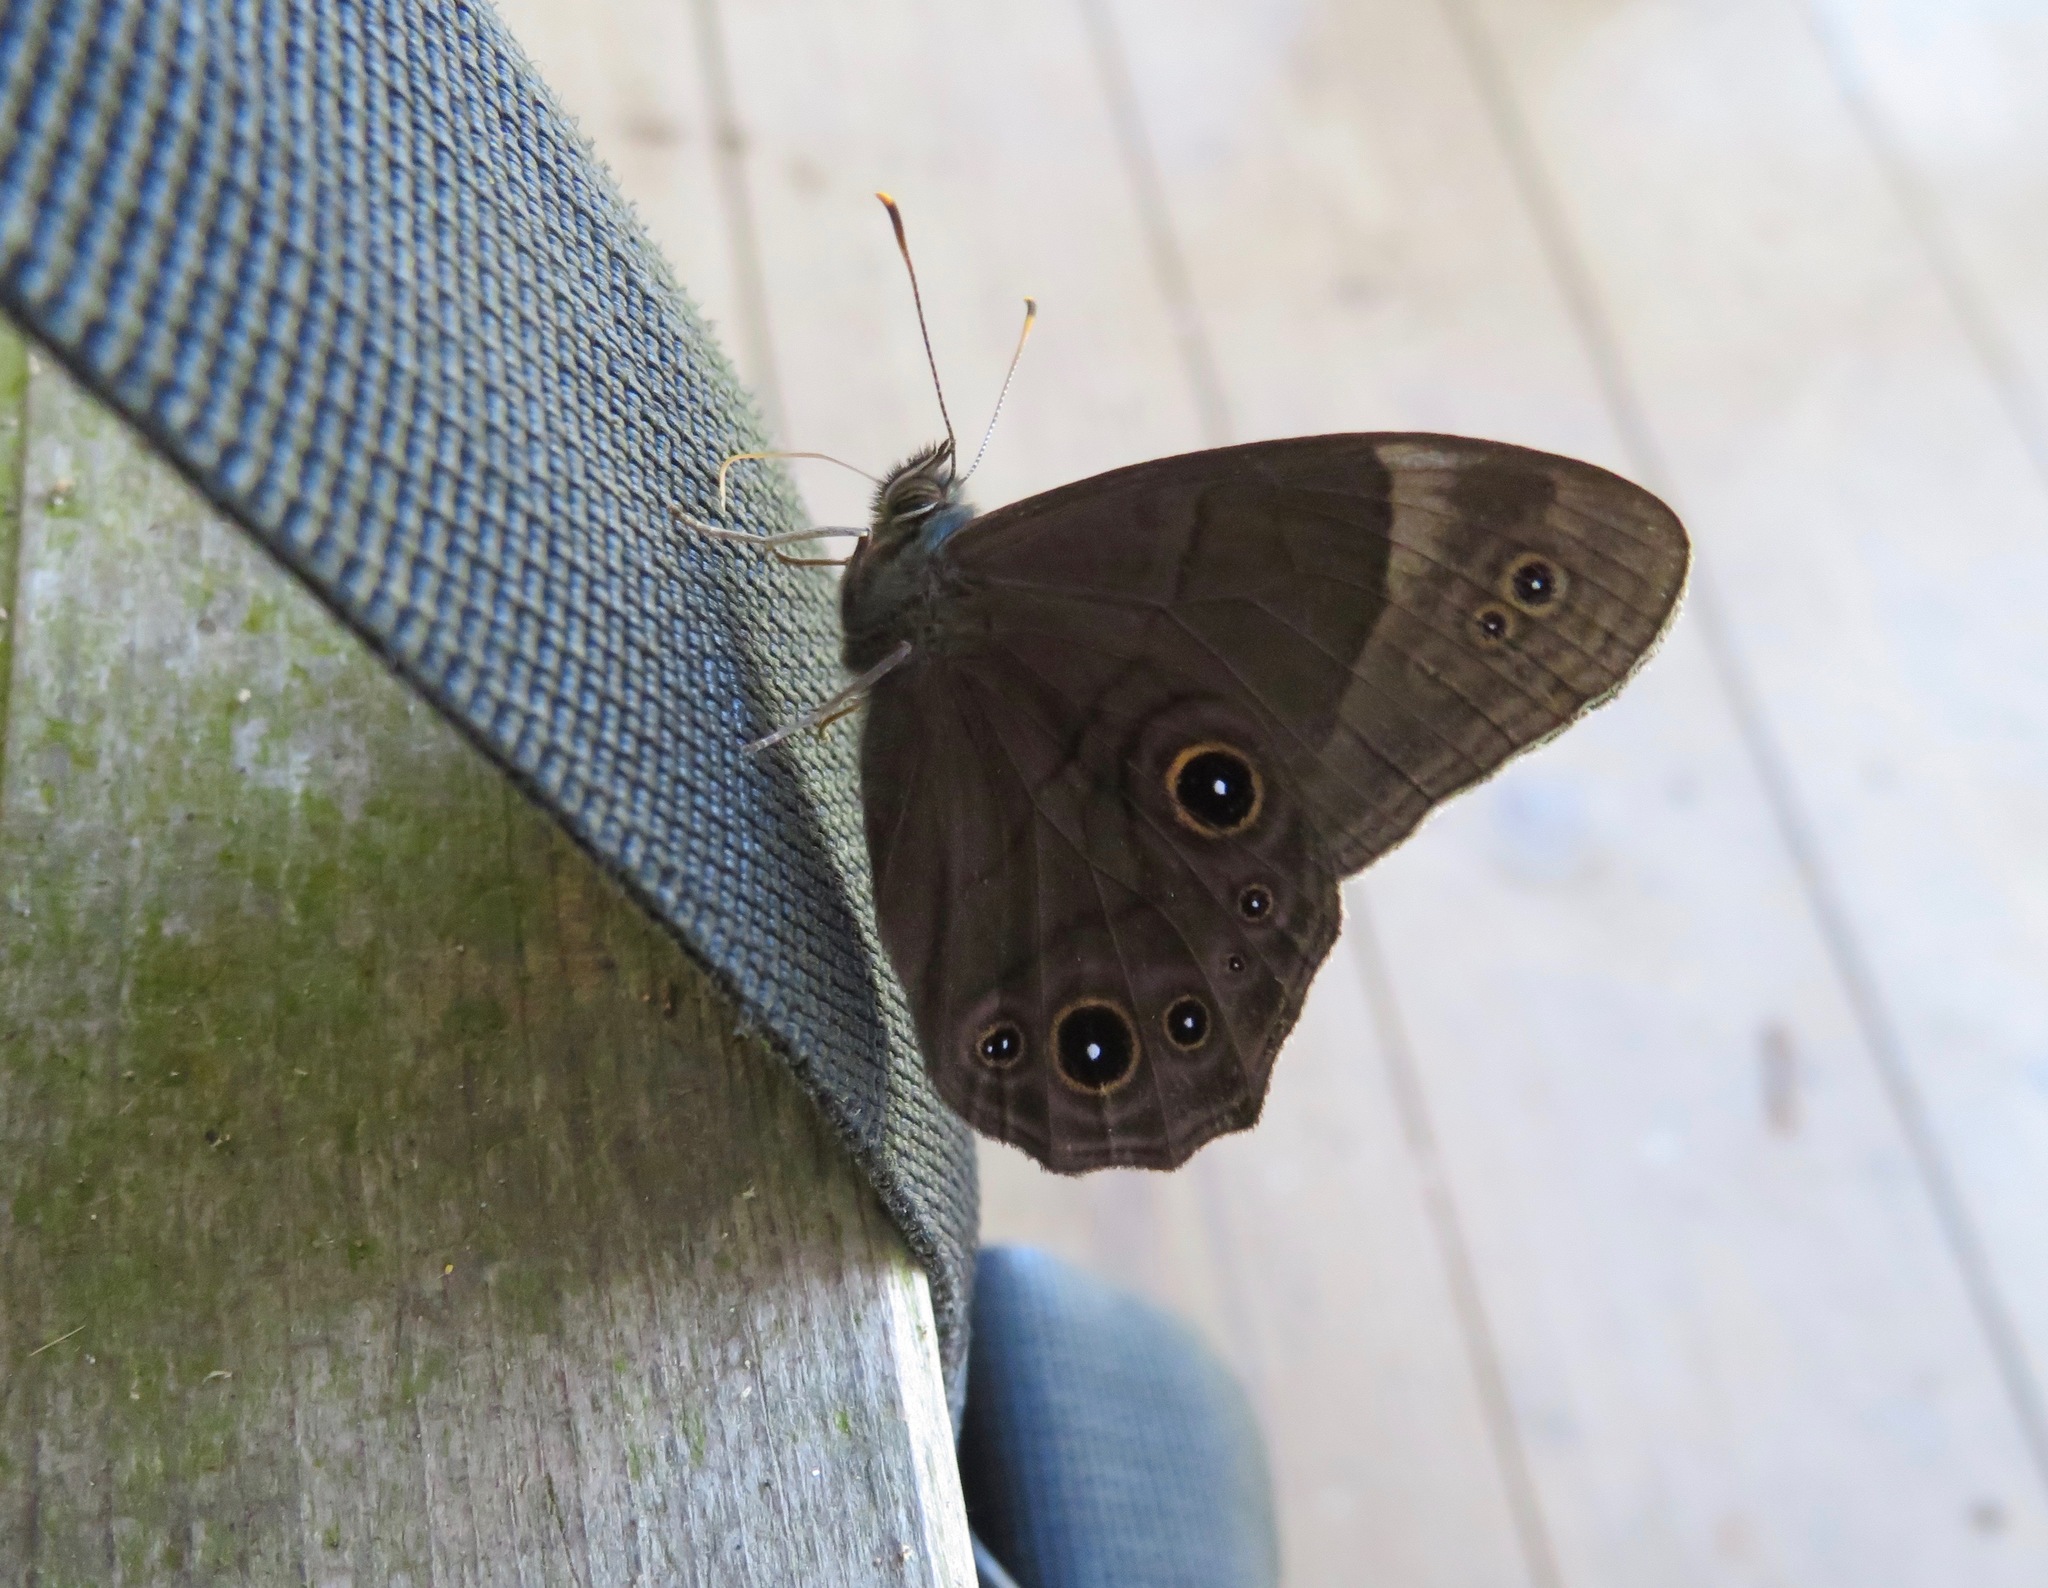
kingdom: Animalia
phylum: Arthropoda
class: Insecta
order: Lepidoptera
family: Nymphalidae
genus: Lethe
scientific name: Lethe diana
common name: Diana treebrown
